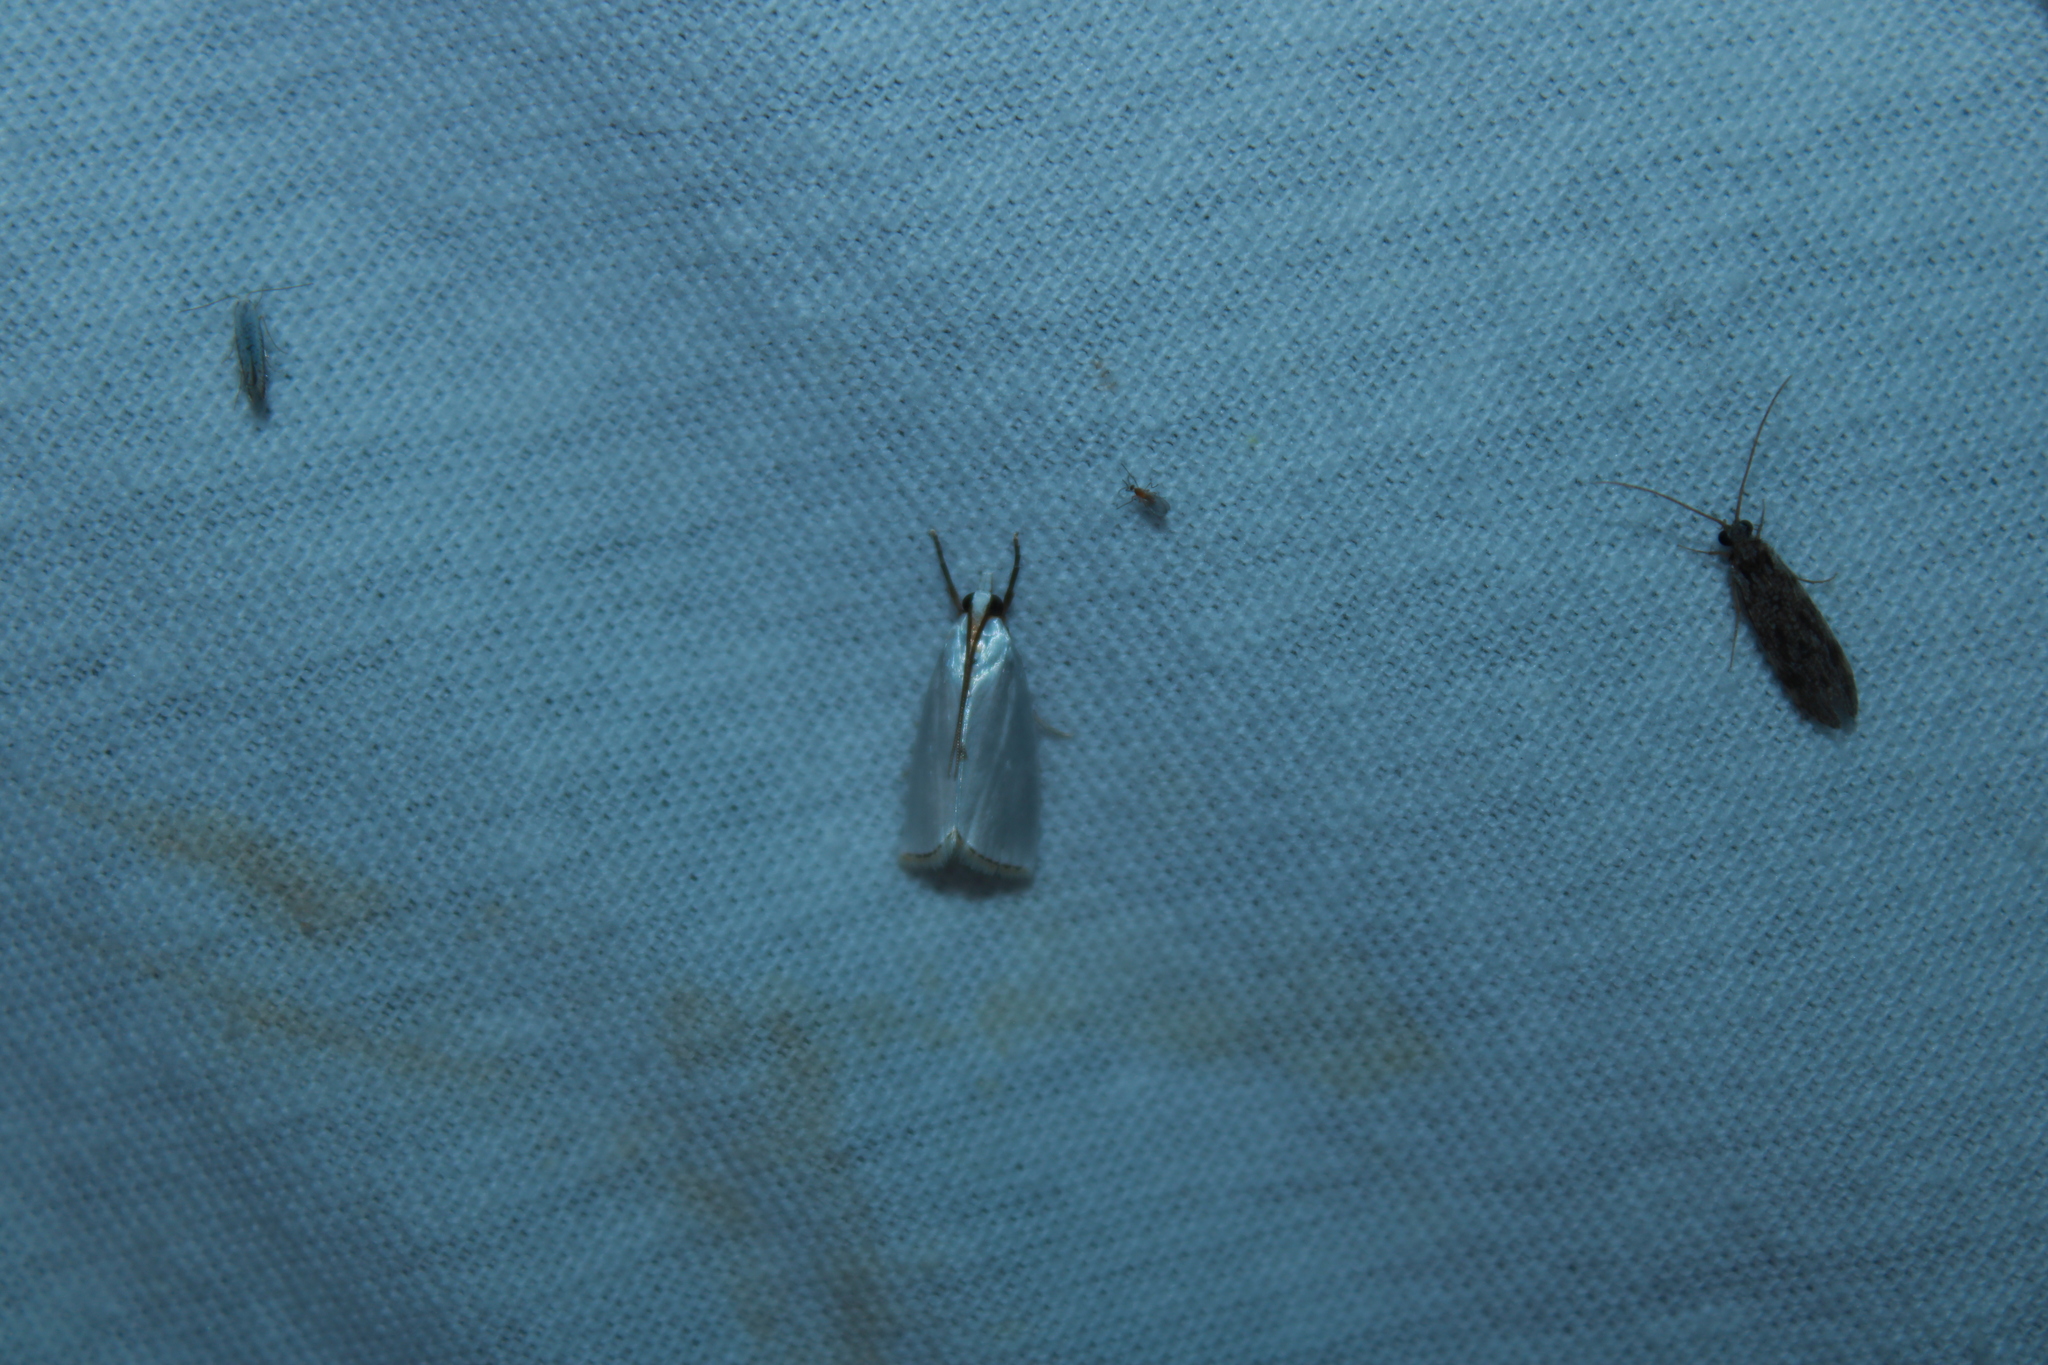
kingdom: Animalia
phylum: Arthropoda
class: Insecta
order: Lepidoptera
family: Crambidae
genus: Argyria
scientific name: Argyria nivalis
